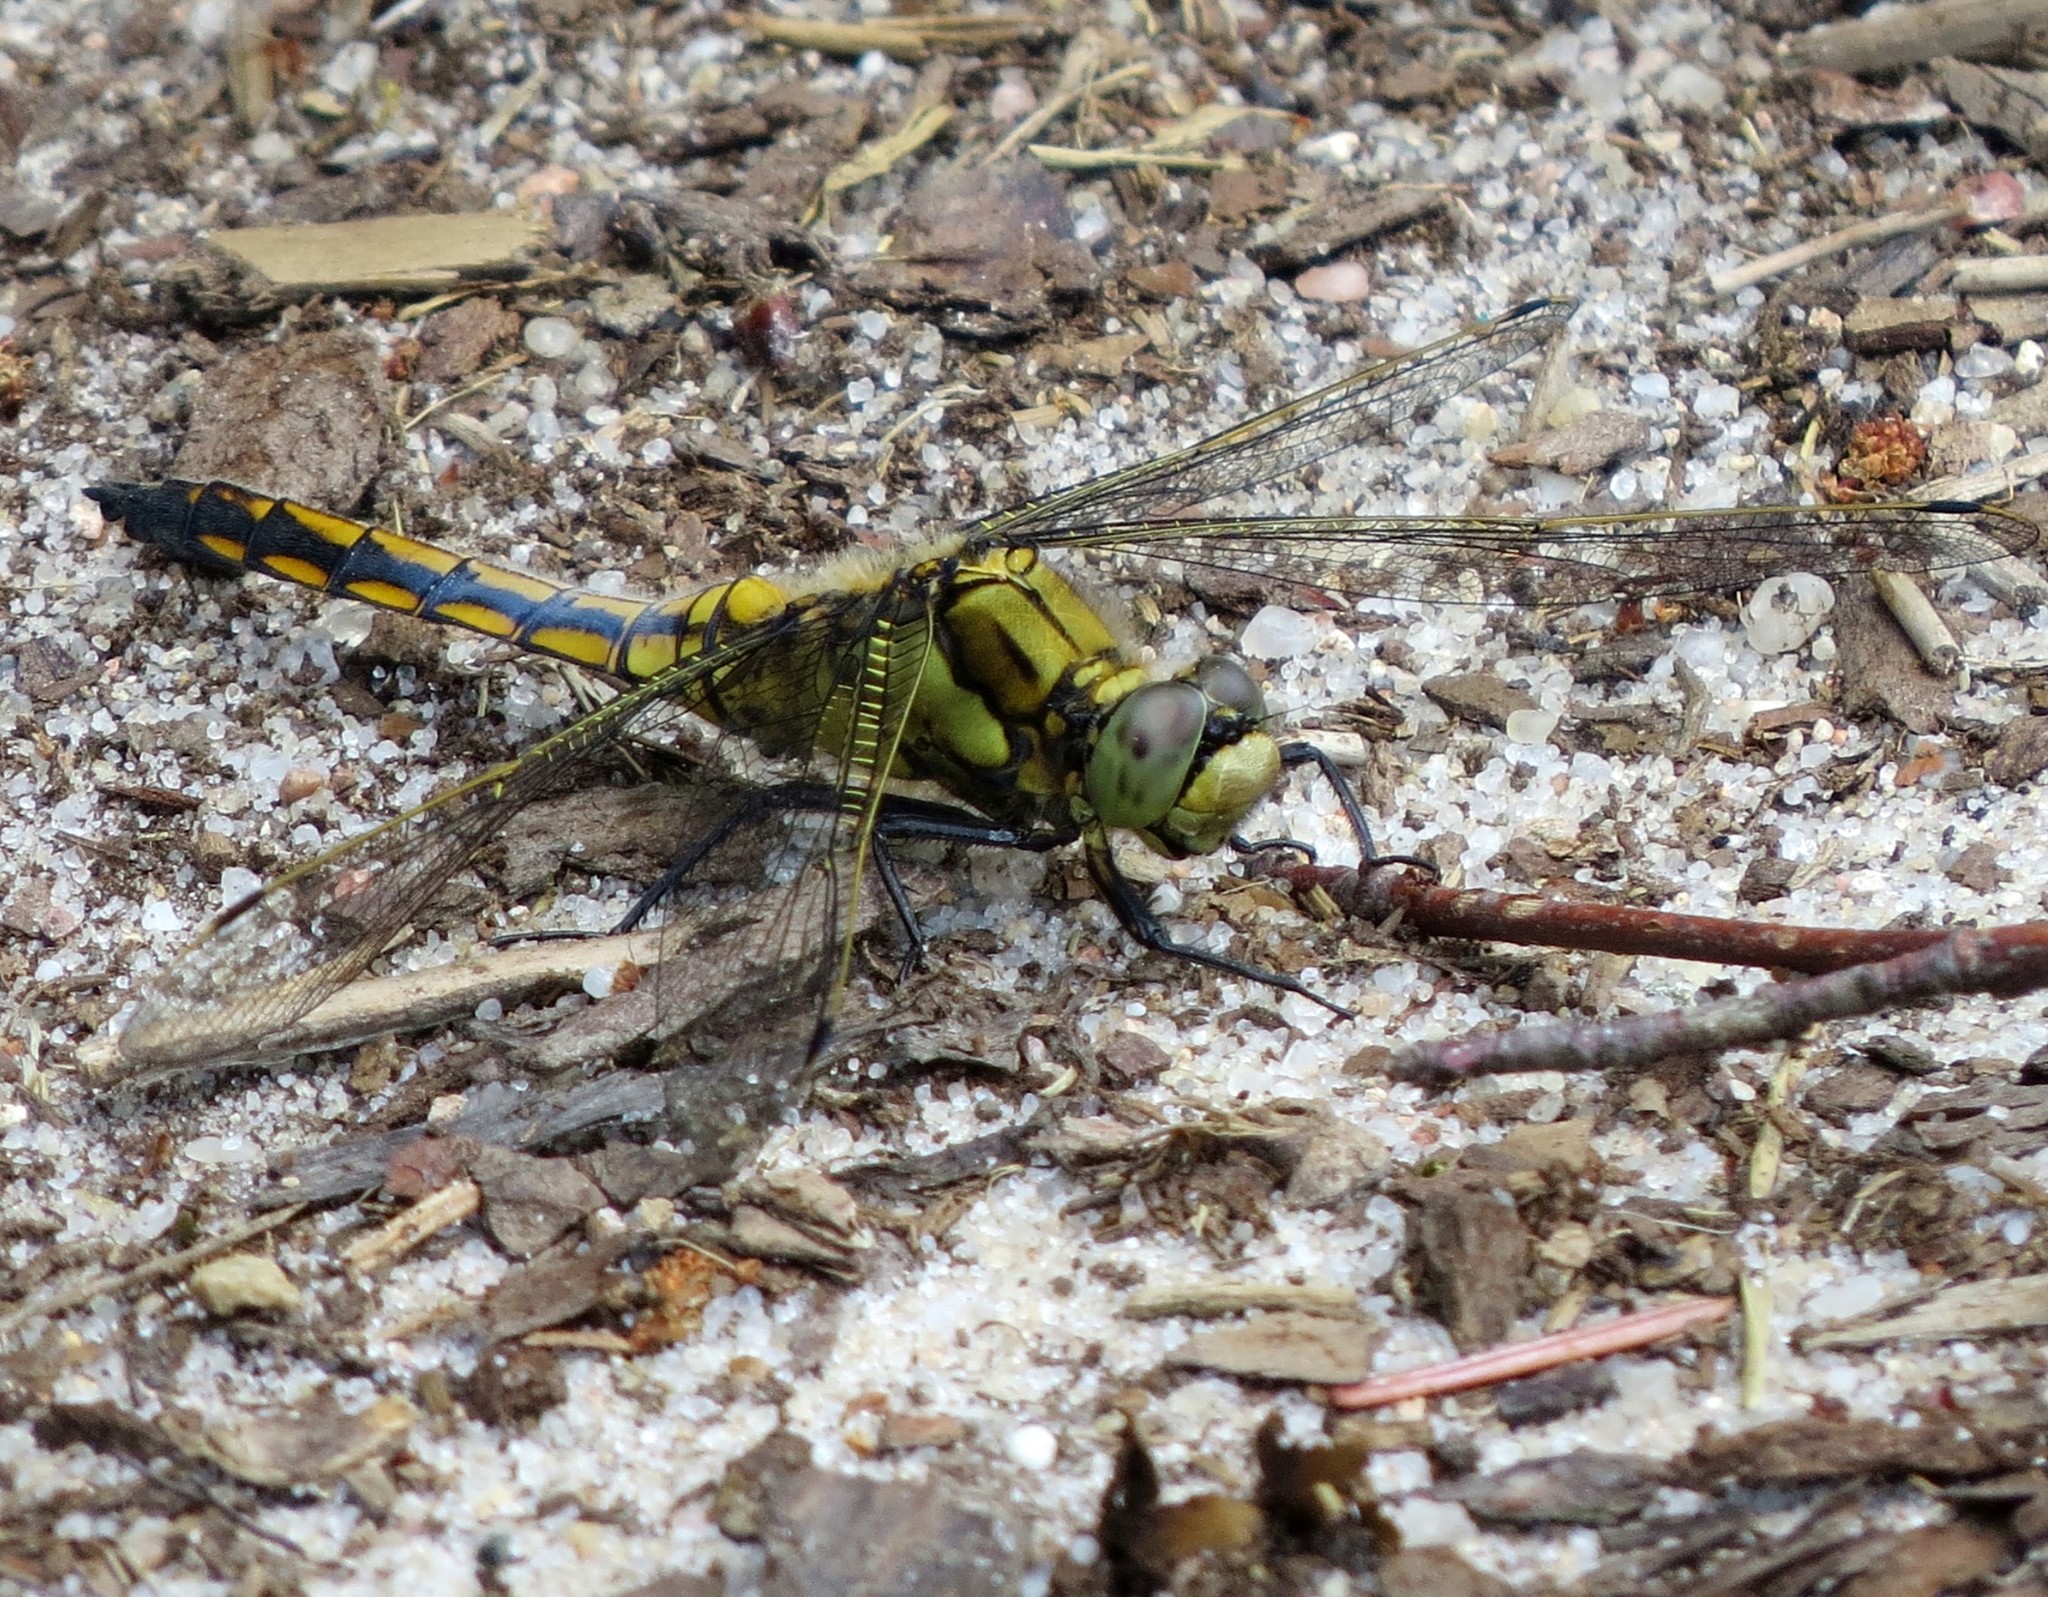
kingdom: Animalia
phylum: Arthropoda
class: Insecta
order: Odonata
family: Libellulidae
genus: Orthetrum
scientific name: Orthetrum cancellatum
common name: Black-tailed skimmer
